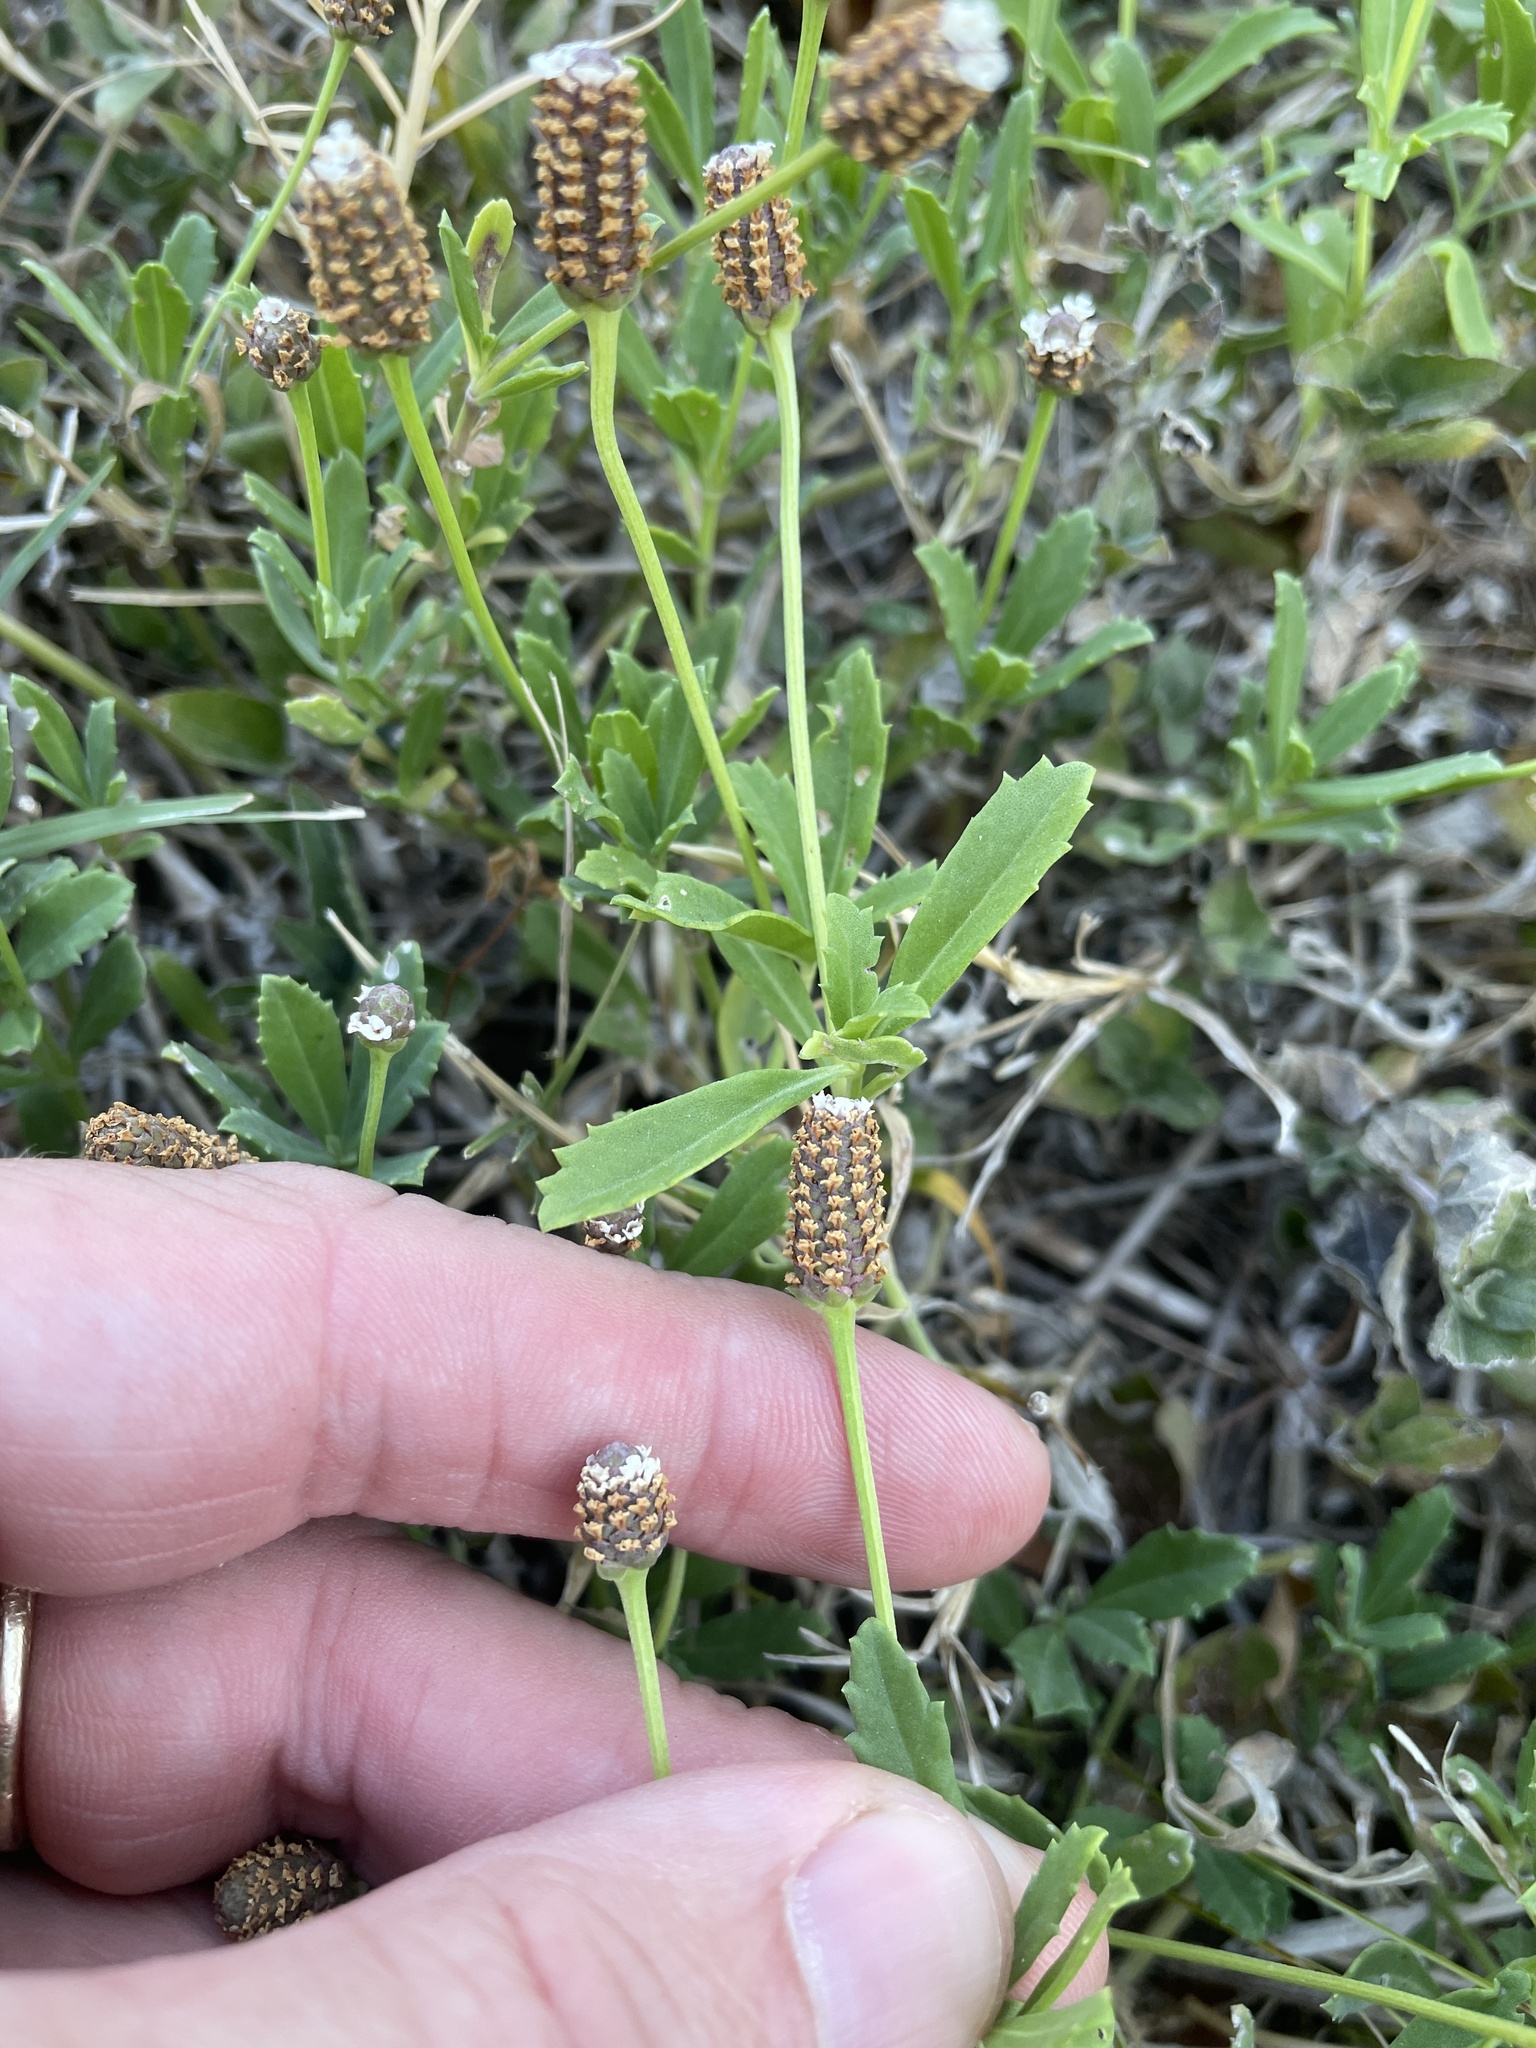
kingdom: Plantae
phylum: Tracheophyta
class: Magnoliopsida
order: Lamiales
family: Verbenaceae
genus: Phyla
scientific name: Phyla nodiflora
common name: Frogfruit
